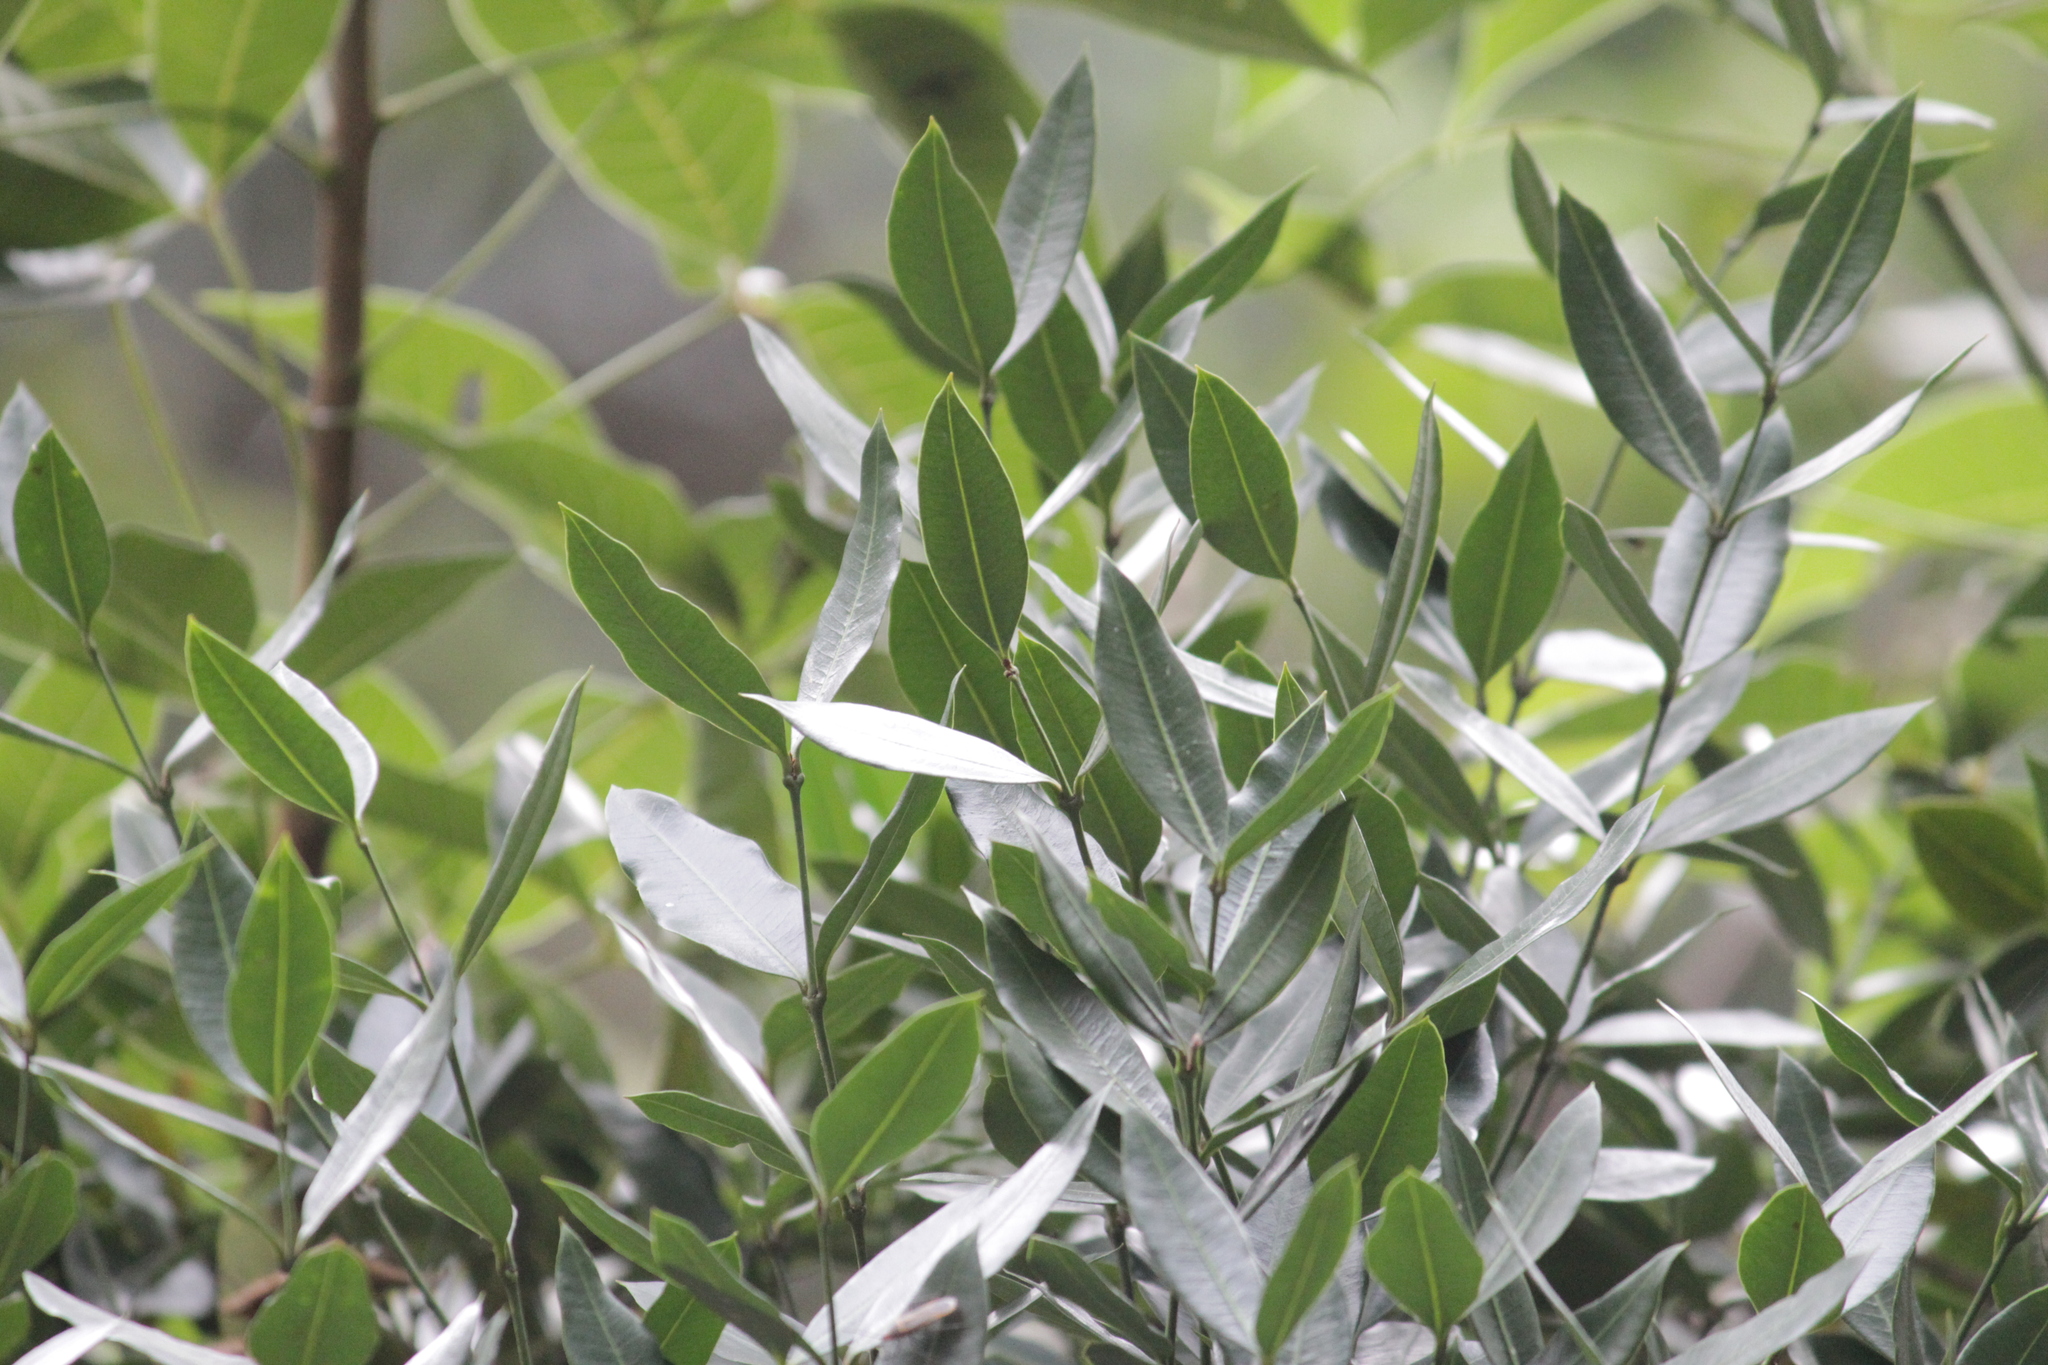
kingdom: Plantae
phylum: Tracheophyta
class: Magnoliopsida
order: Gentianales
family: Apocynaceae
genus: Secamone
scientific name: Secamone gerrardii
